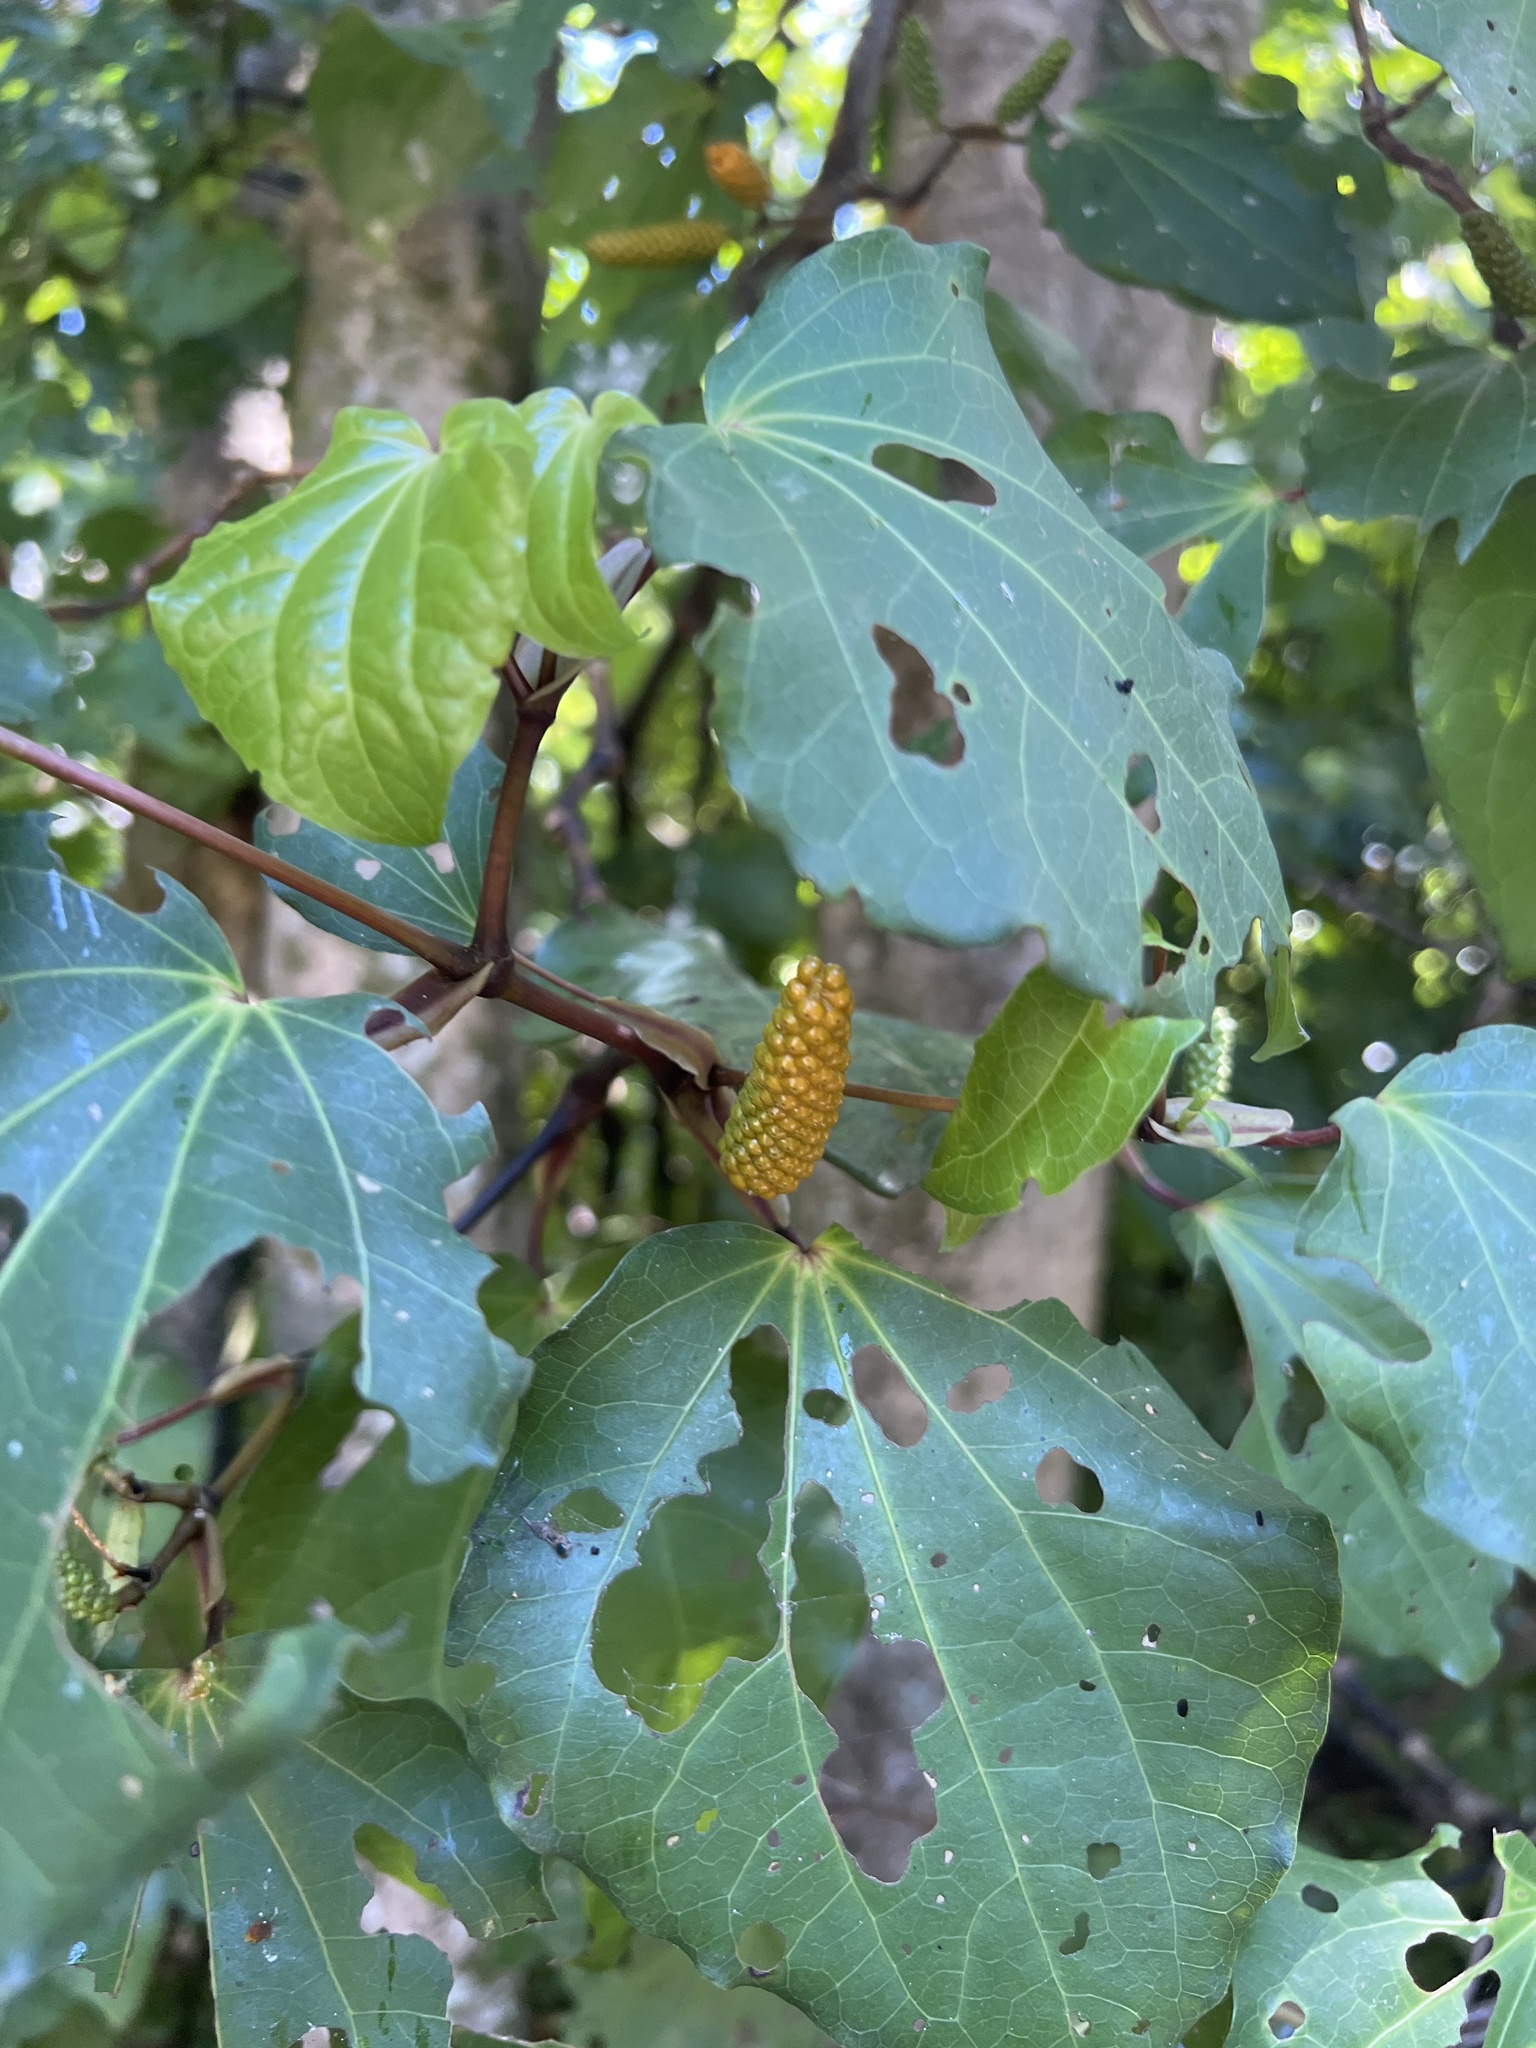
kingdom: Plantae
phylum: Tracheophyta
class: Magnoliopsida
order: Piperales
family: Piperaceae
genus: Macropiper
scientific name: Macropiper excelsum
